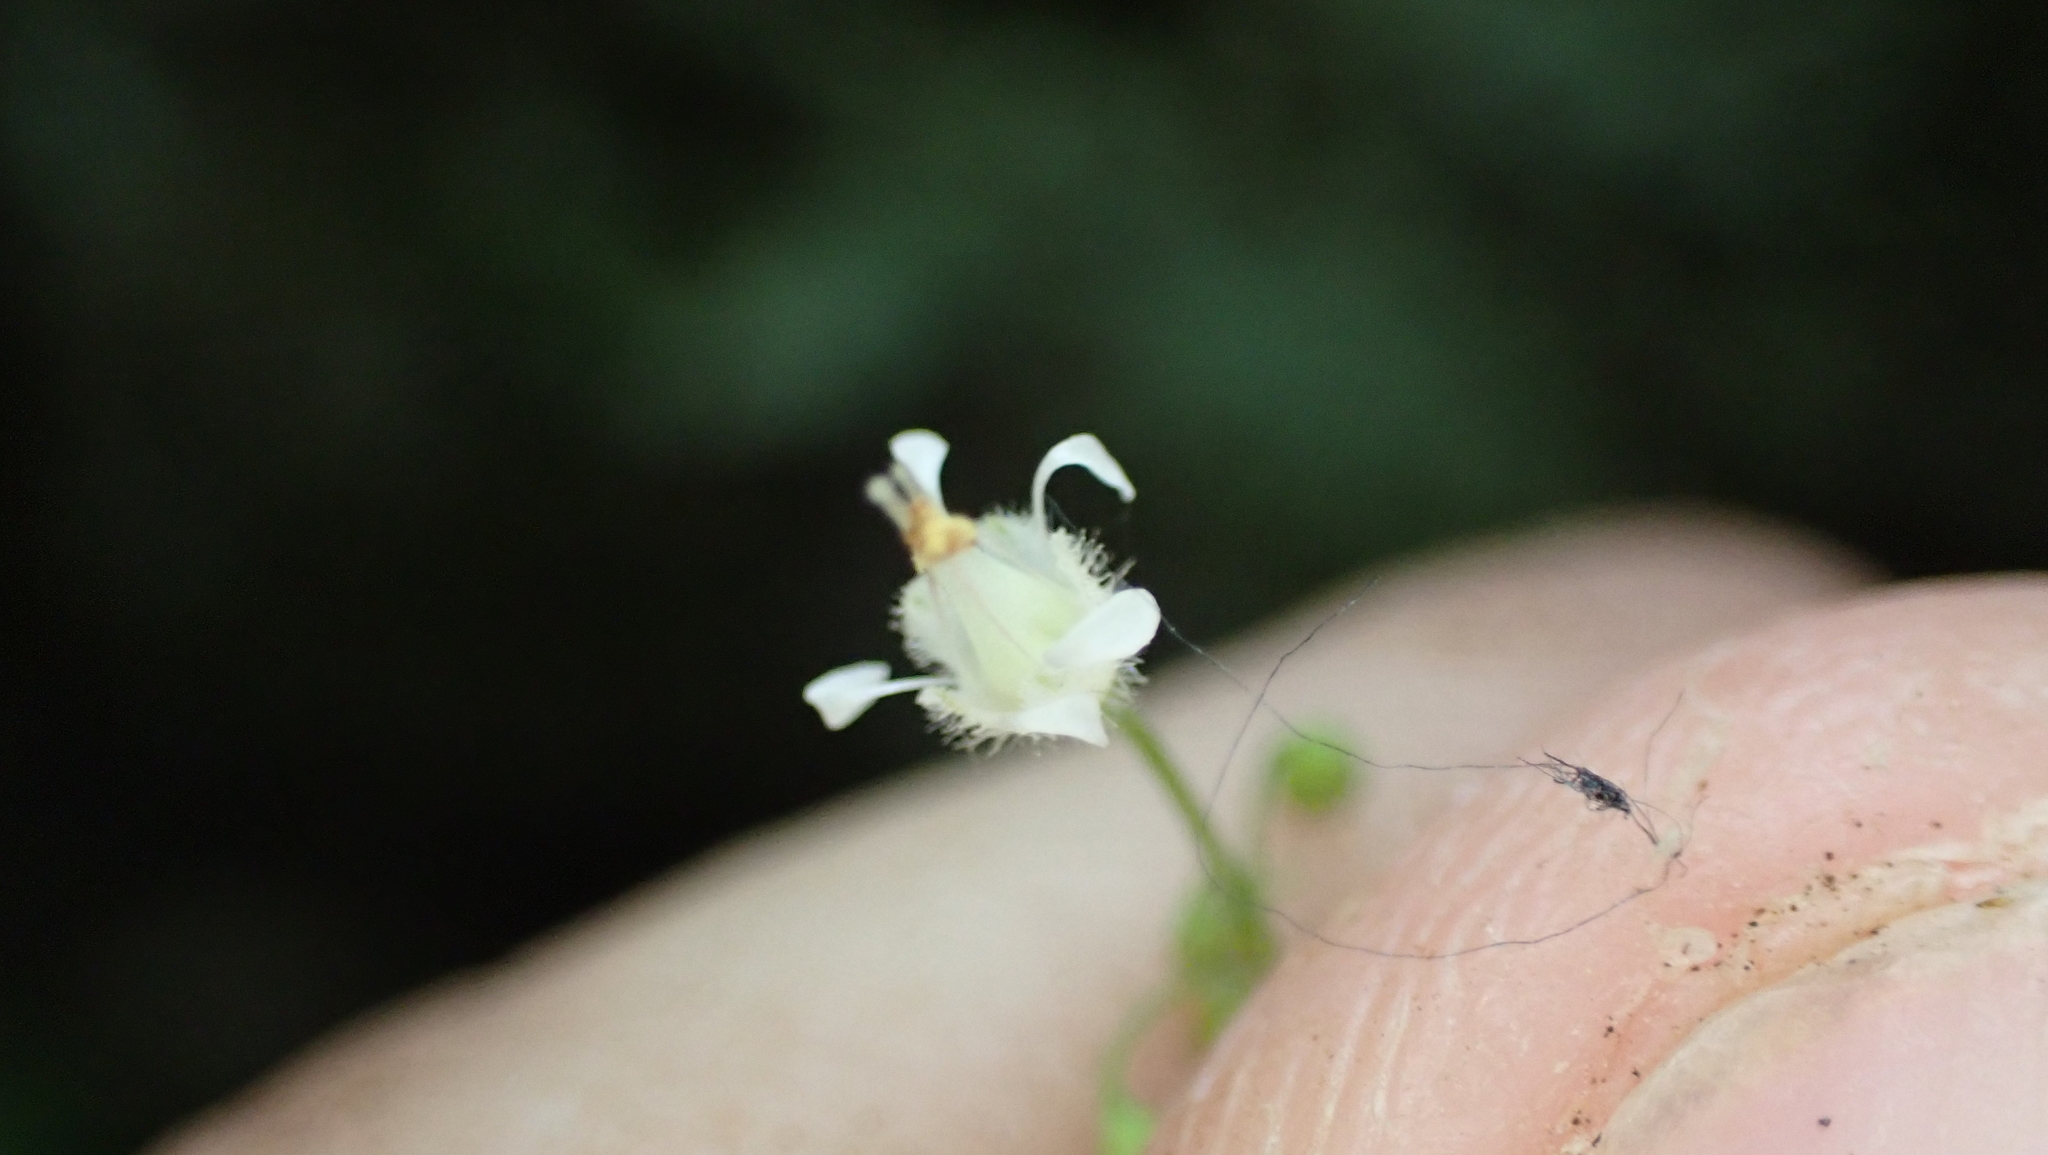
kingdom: Plantae
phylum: Tracheophyta
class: Magnoliopsida
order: Saxifragales
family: Saxifragaceae
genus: Heuchera
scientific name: Heuchera parviflora
